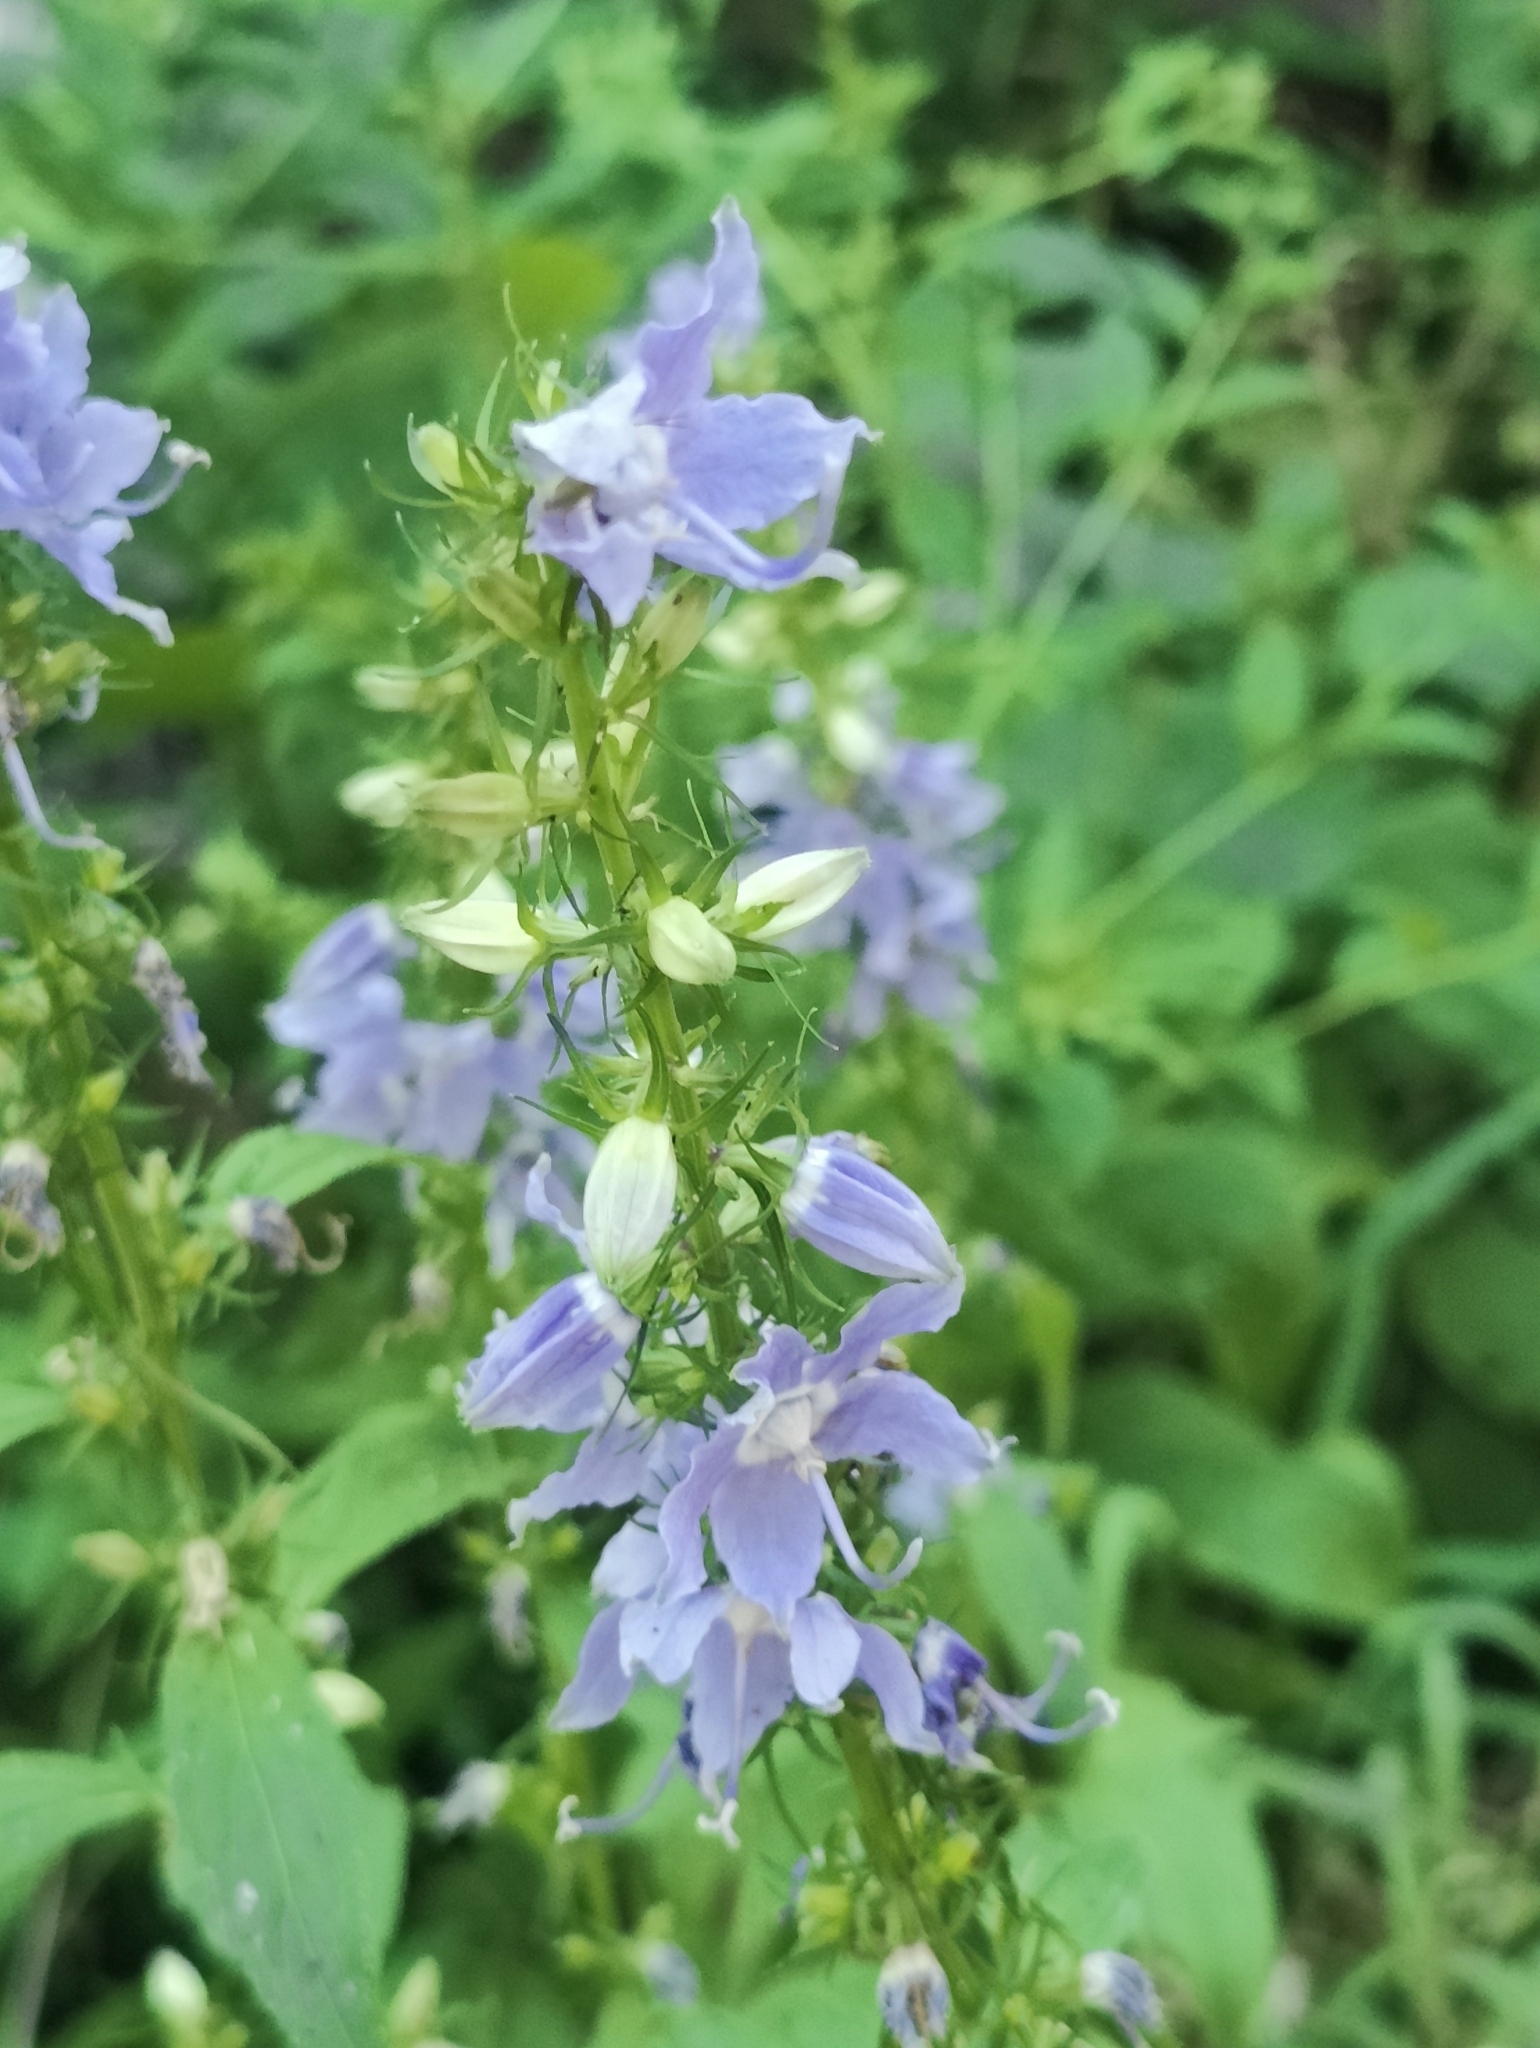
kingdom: Plantae
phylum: Tracheophyta
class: Magnoliopsida
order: Asterales
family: Campanulaceae
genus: Campanulastrum
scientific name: Campanulastrum americanum
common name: American bellflower
